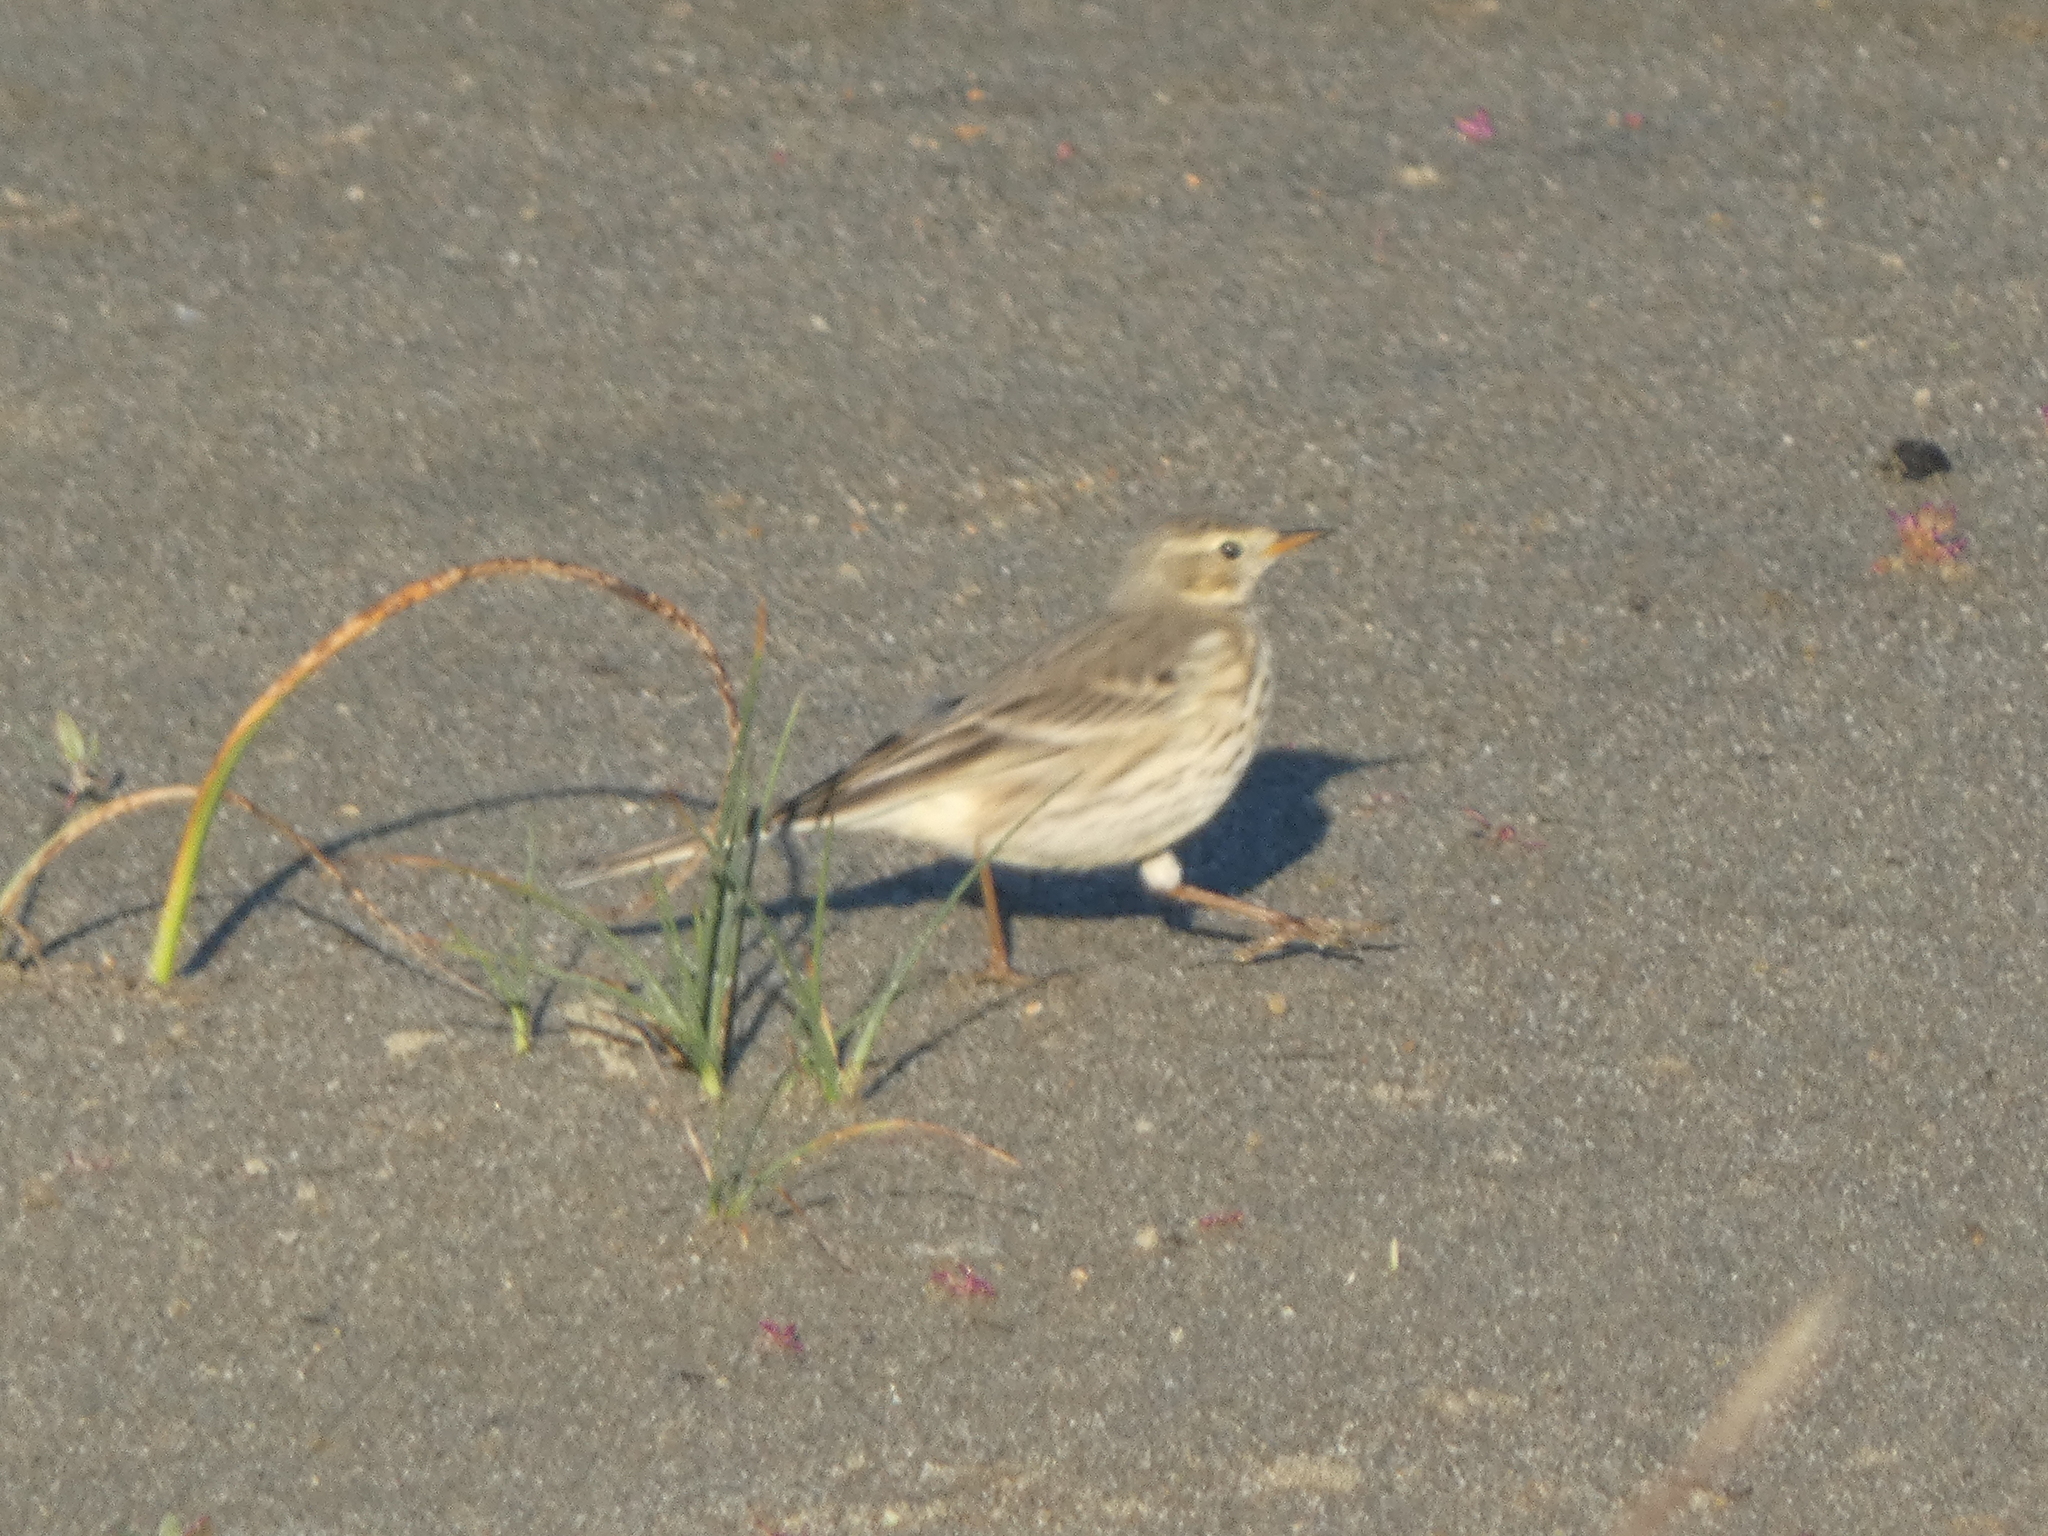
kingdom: Animalia
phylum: Chordata
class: Aves
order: Passeriformes
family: Motacillidae
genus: Anthus
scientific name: Anthus rubescens
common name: Buff-bellied pipit
